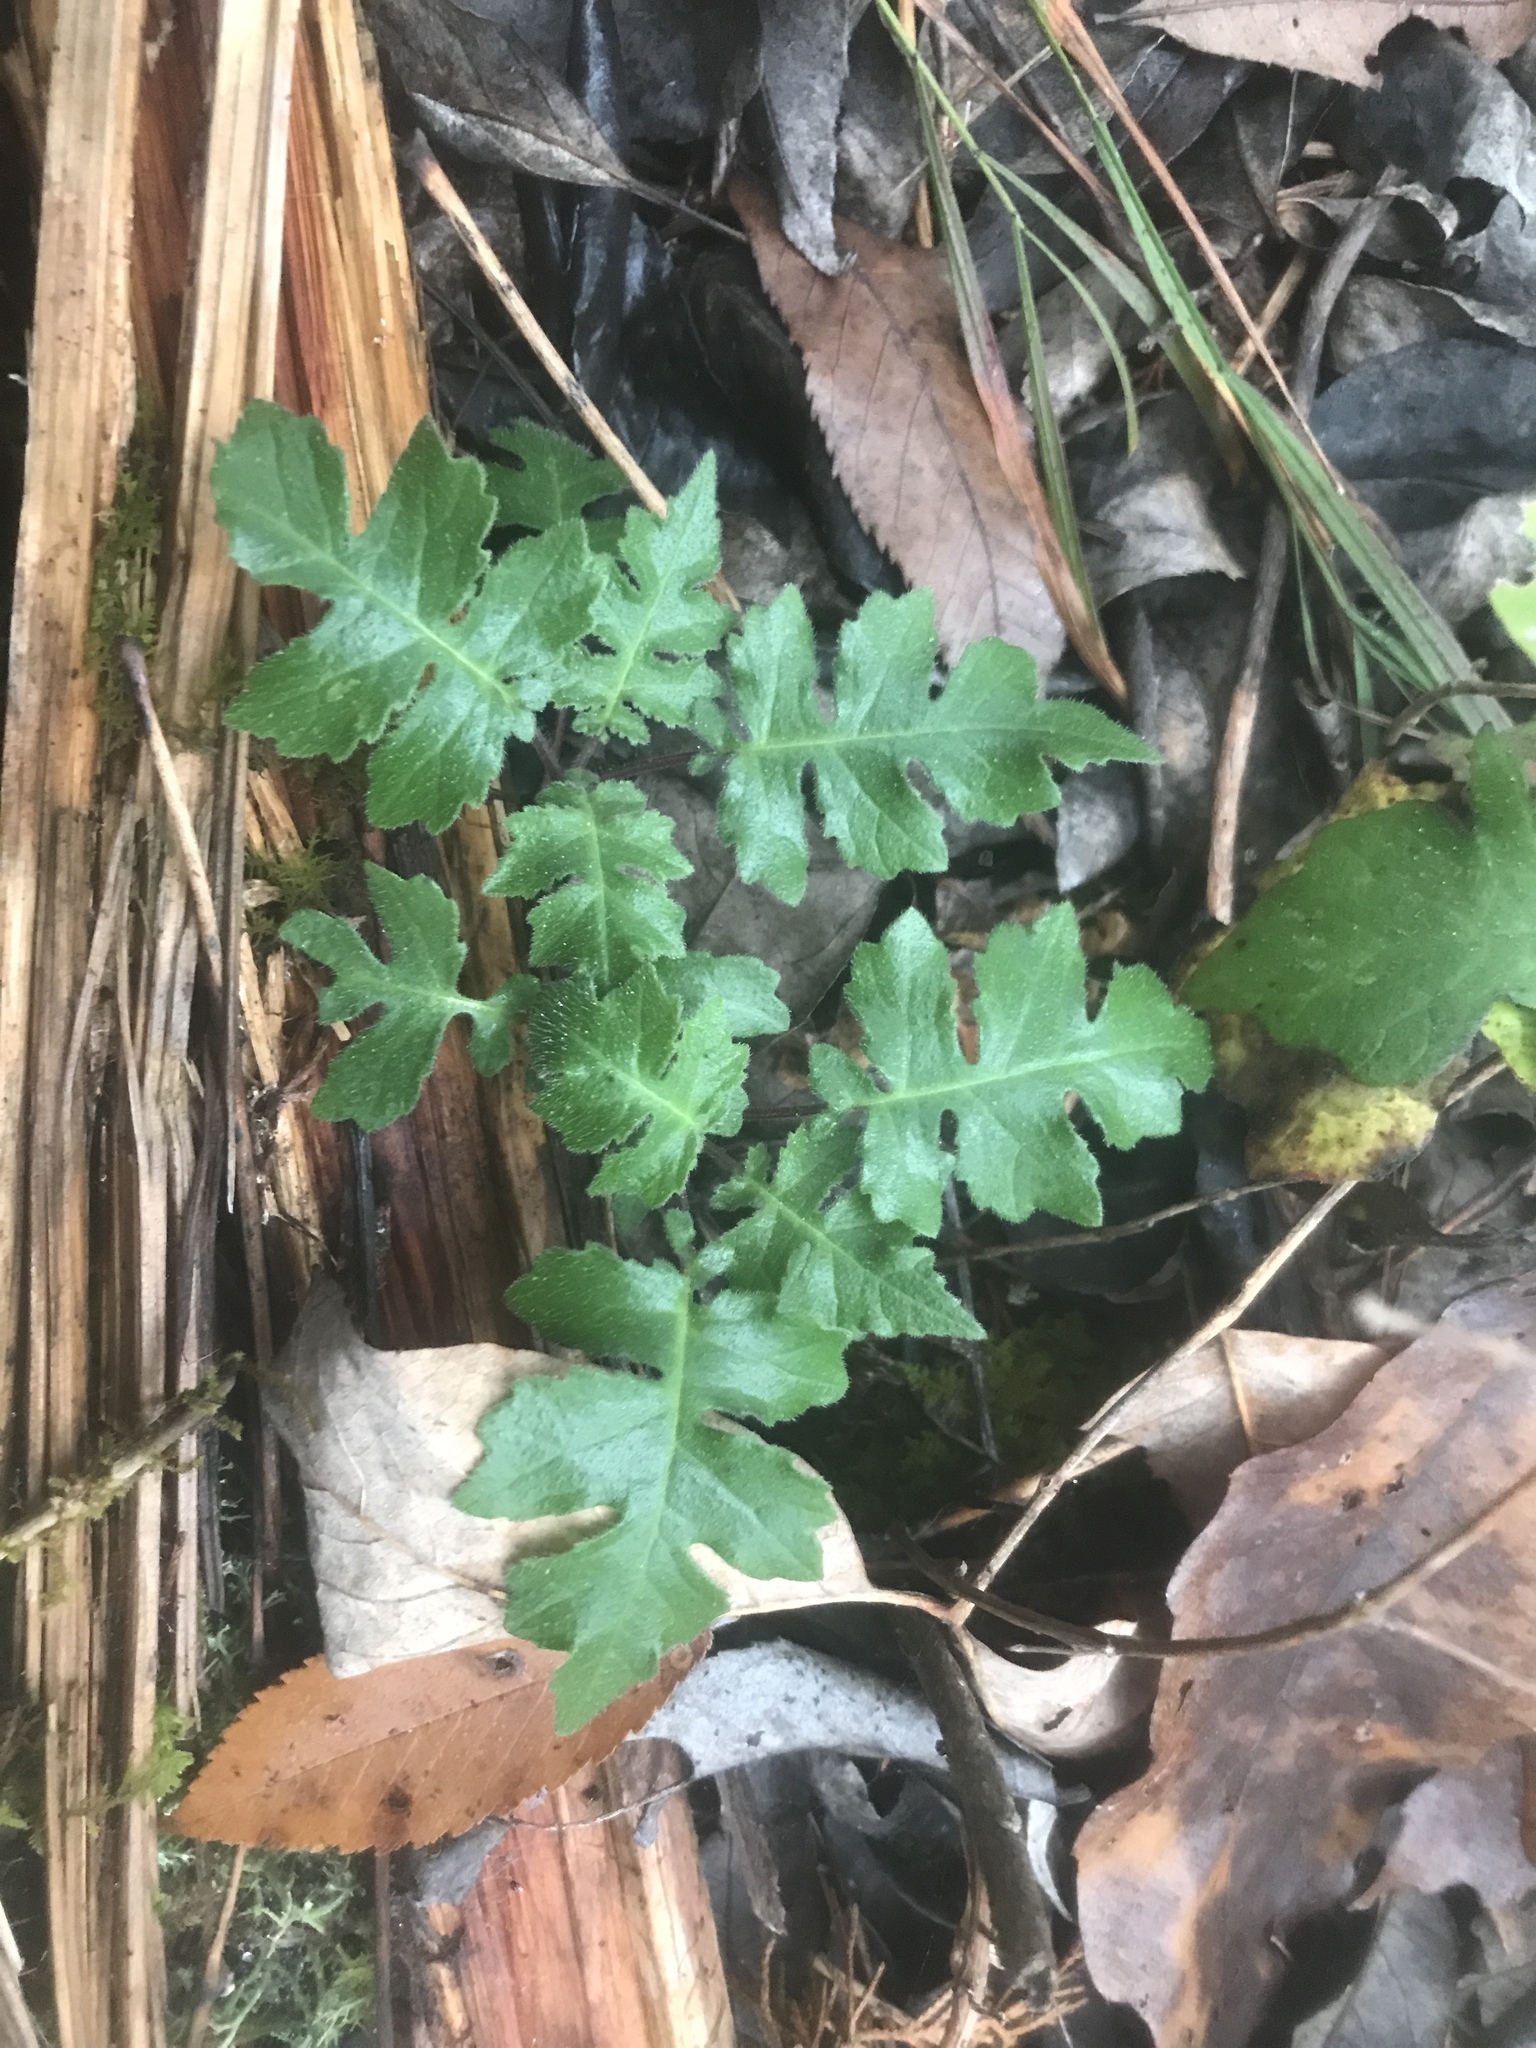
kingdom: Plantae
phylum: Tracheophyta
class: Magnoliopsida
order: Asterales
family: Asteraceae
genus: Polymnia
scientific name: Polymnia canadensis
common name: Pale-flowered leafcup
